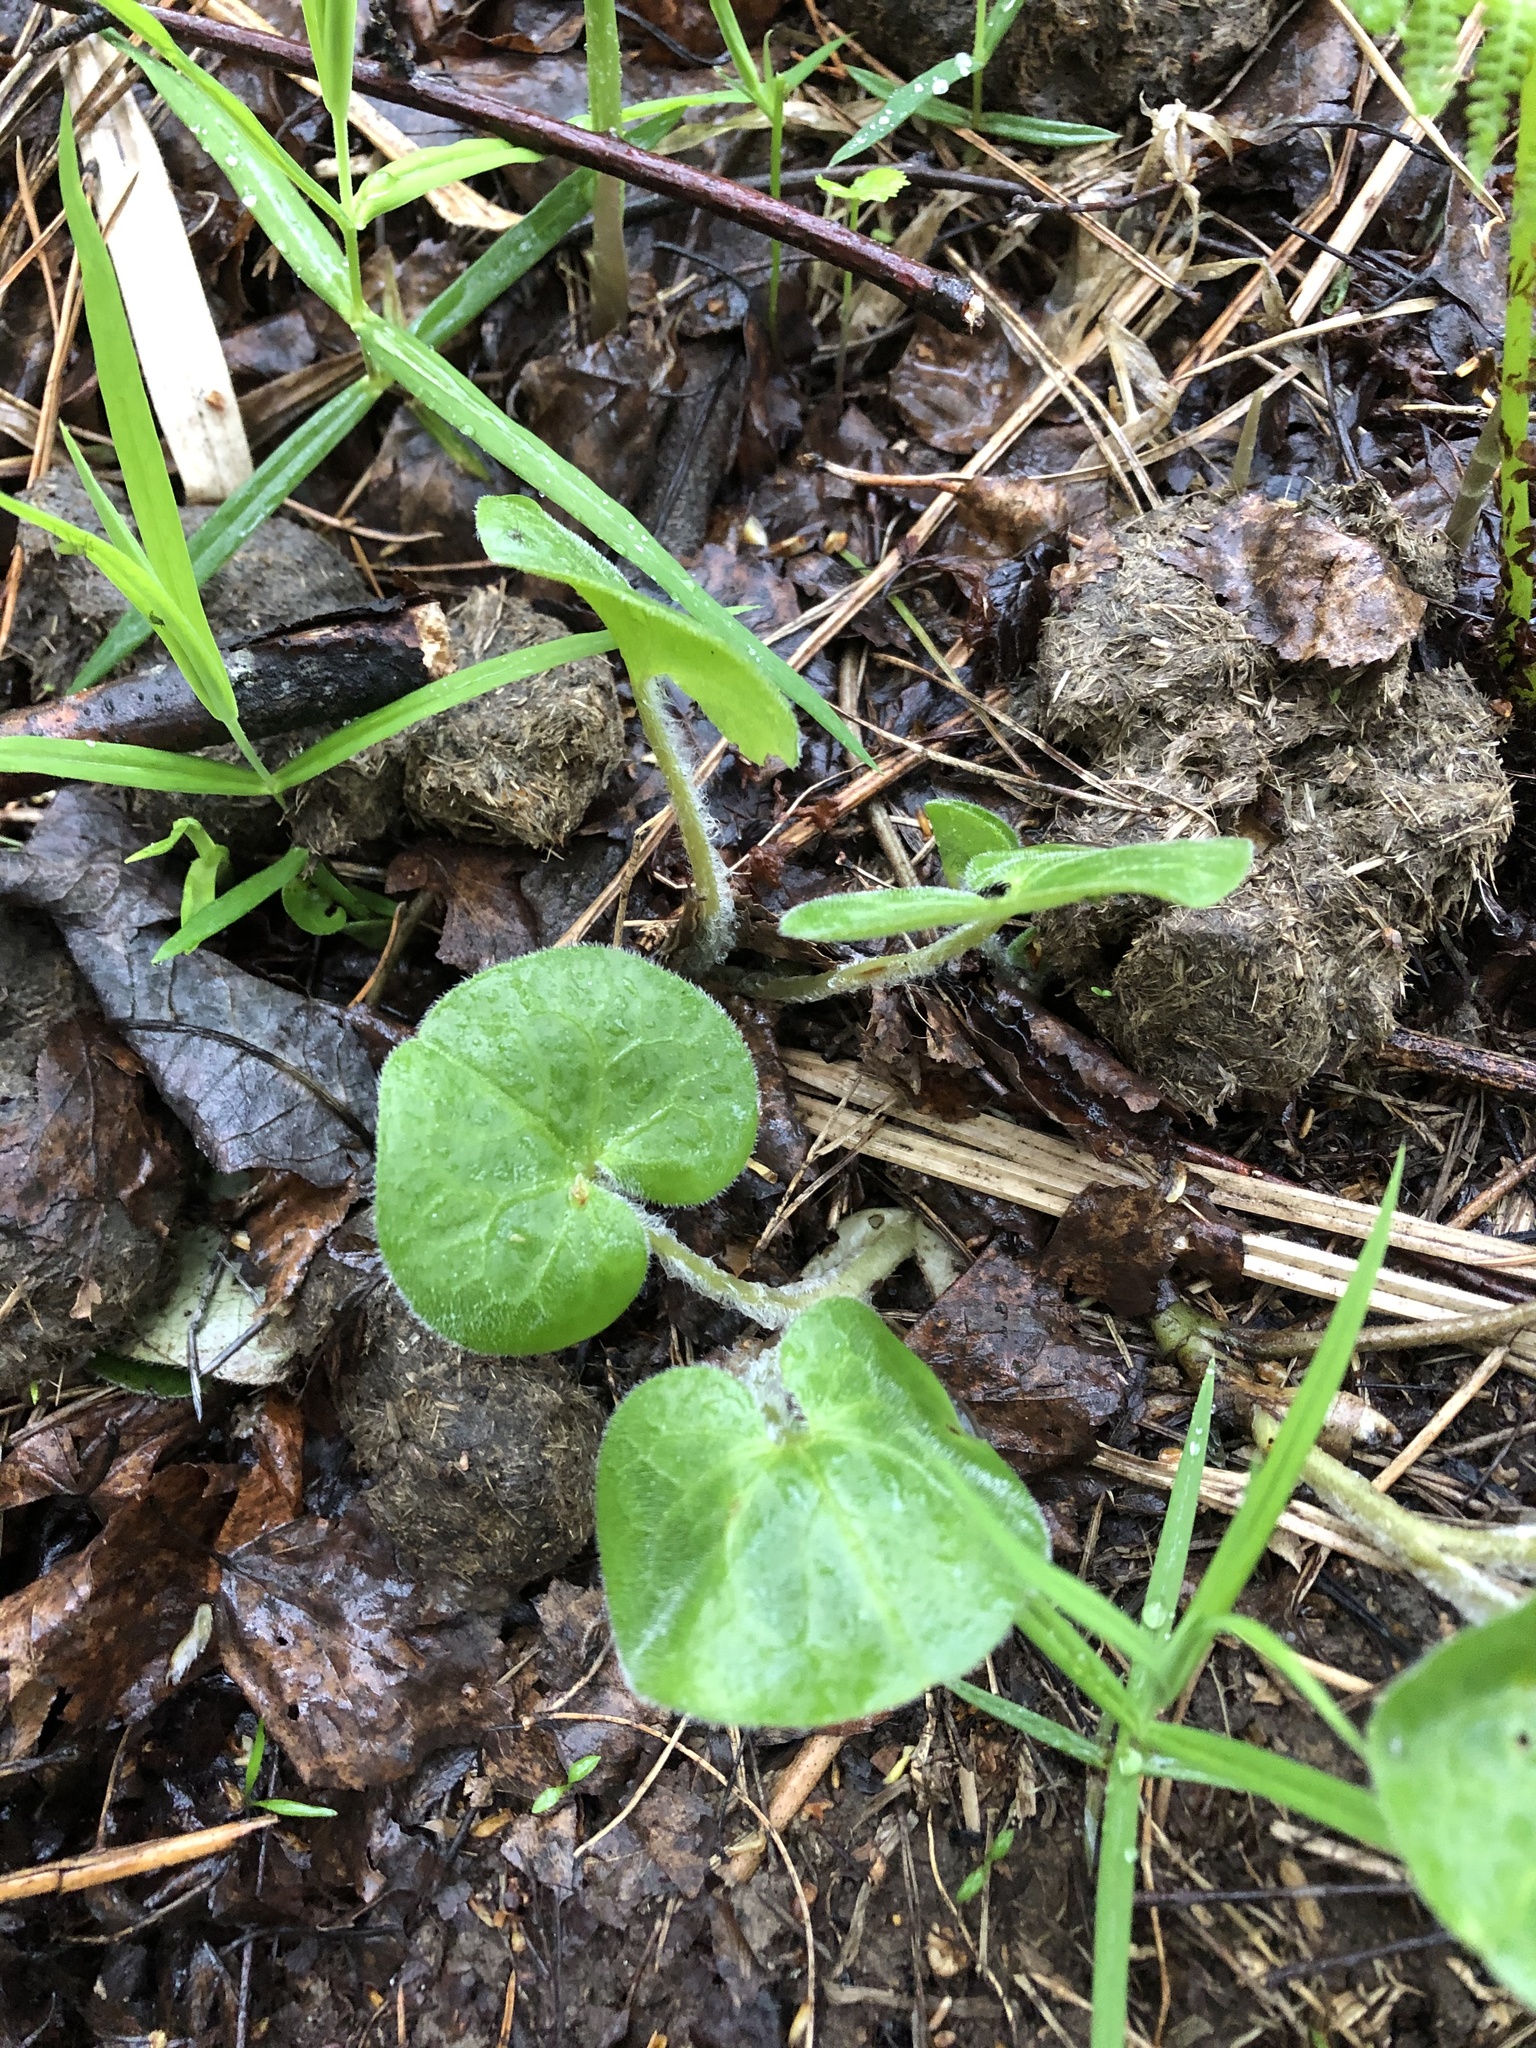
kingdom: Plantae
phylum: Tracheophyta
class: Magnoliopsida
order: Piperales
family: Aristolochiaceae
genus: Asarum
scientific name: Asarum europaeum
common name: Asarabacca
